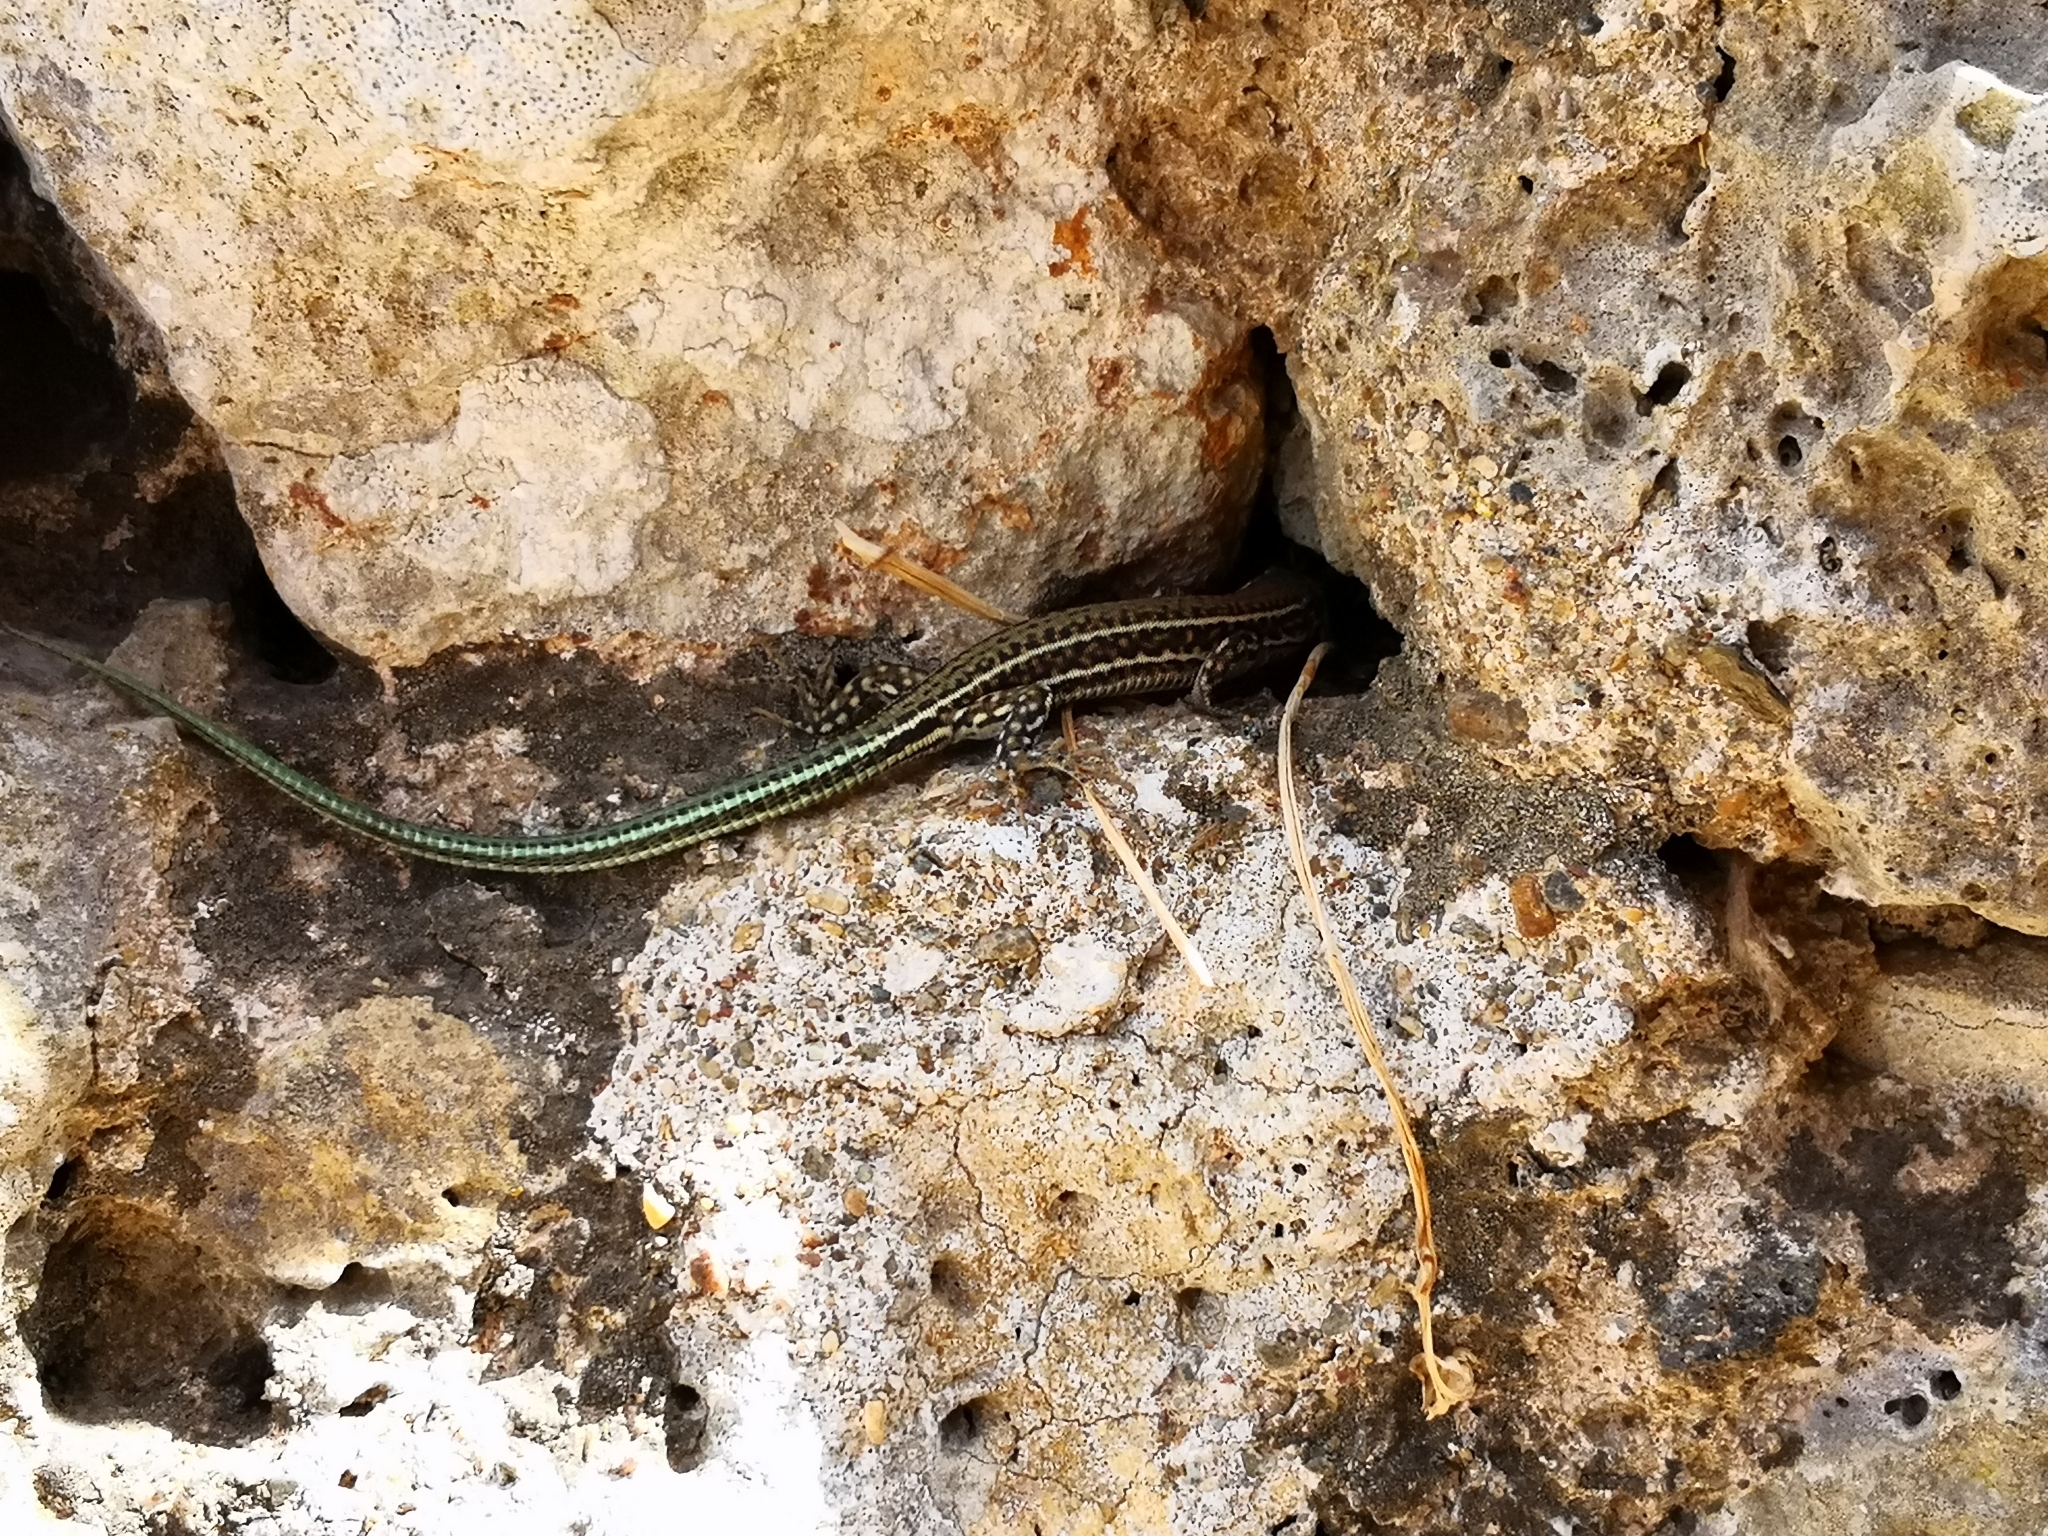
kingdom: Animalia
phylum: Chordata
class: Squamata
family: Lacertidae
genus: Podarcis
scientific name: Podarcis cretensis
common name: Cretan wall lizard
